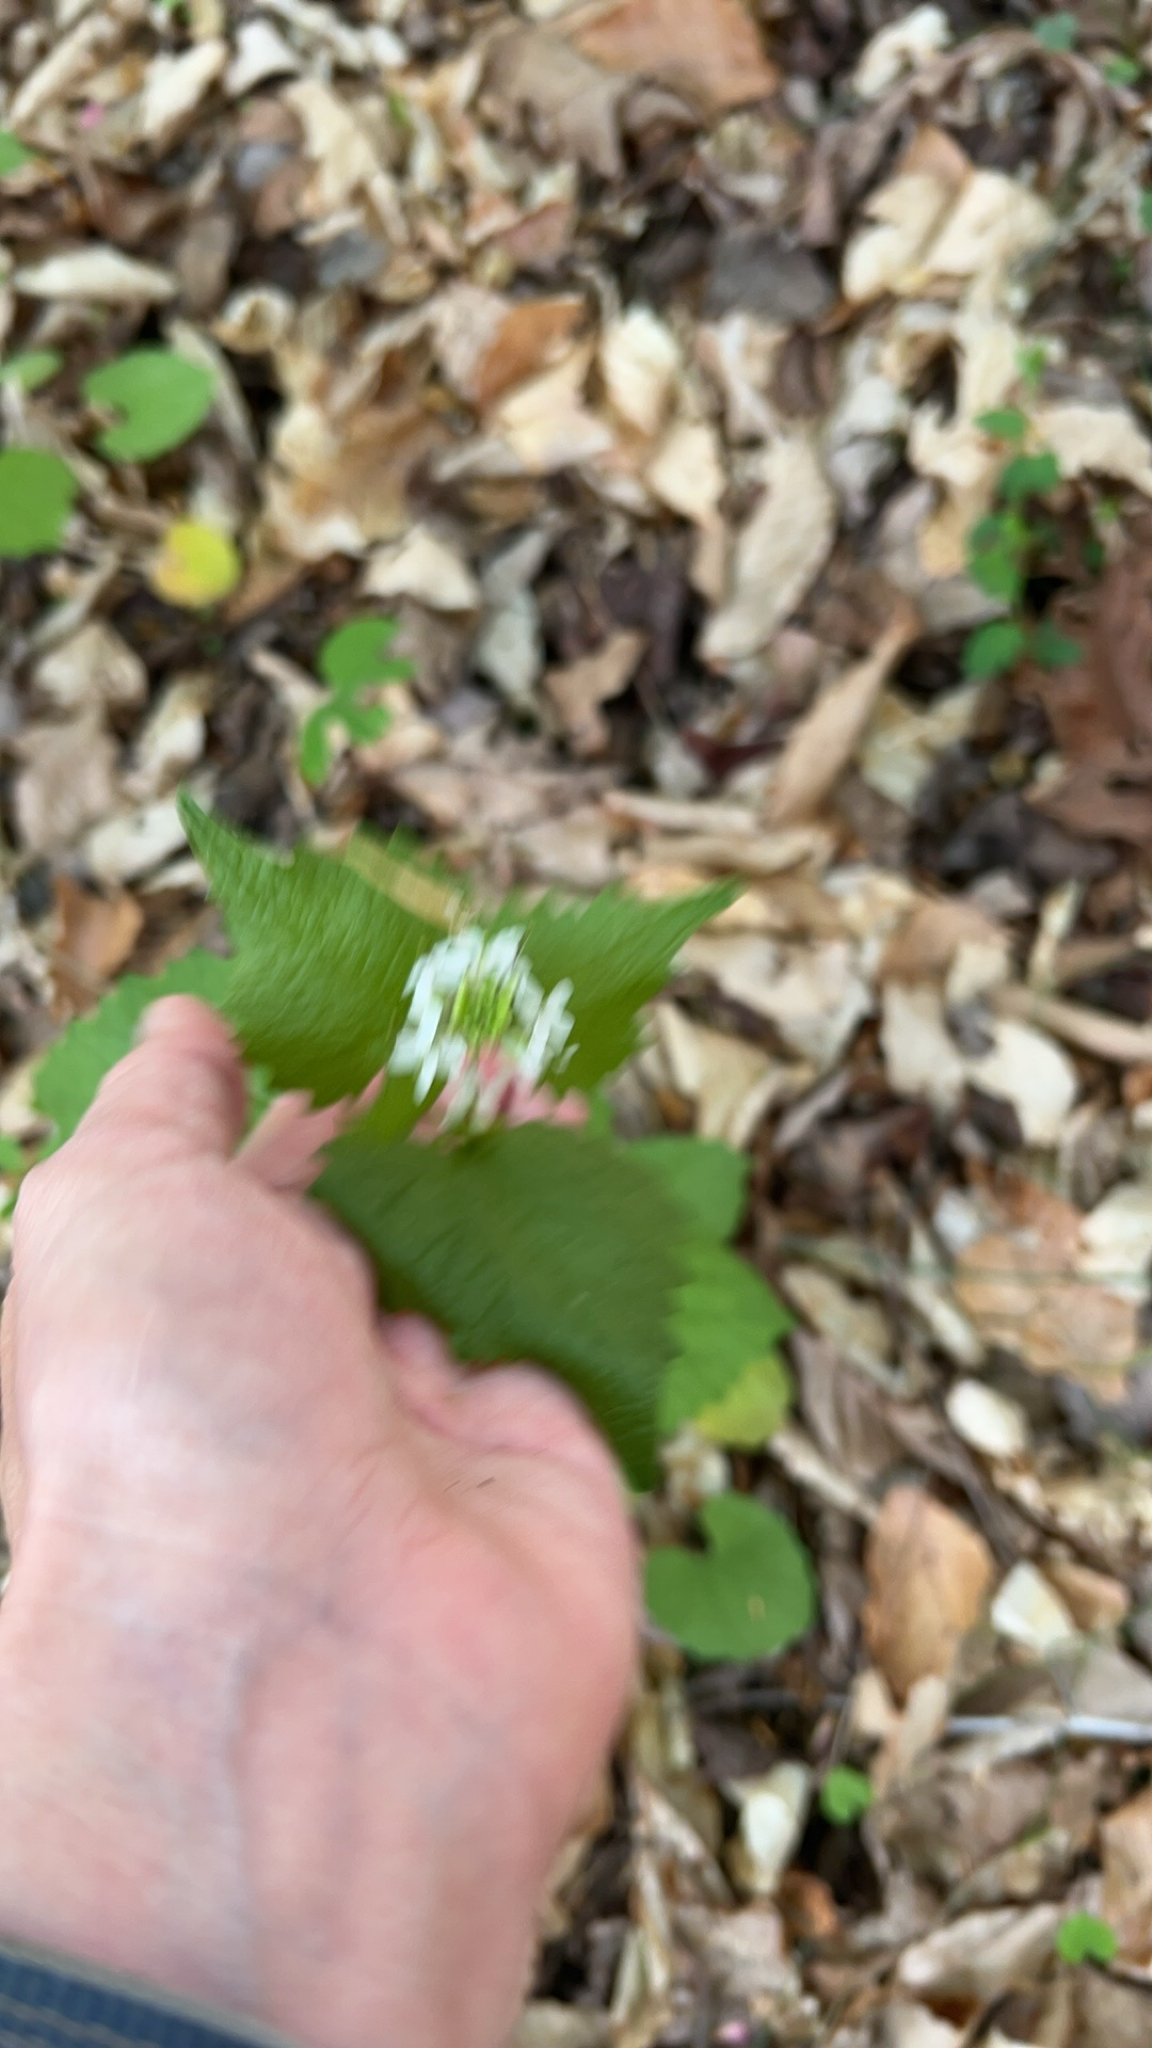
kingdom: Plantae
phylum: Tracheophyta
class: Magnoliopsida
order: Brassicales
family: Brassicaceae
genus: Alliaria
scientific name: Alliaria petiolata
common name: Garlic mustard
